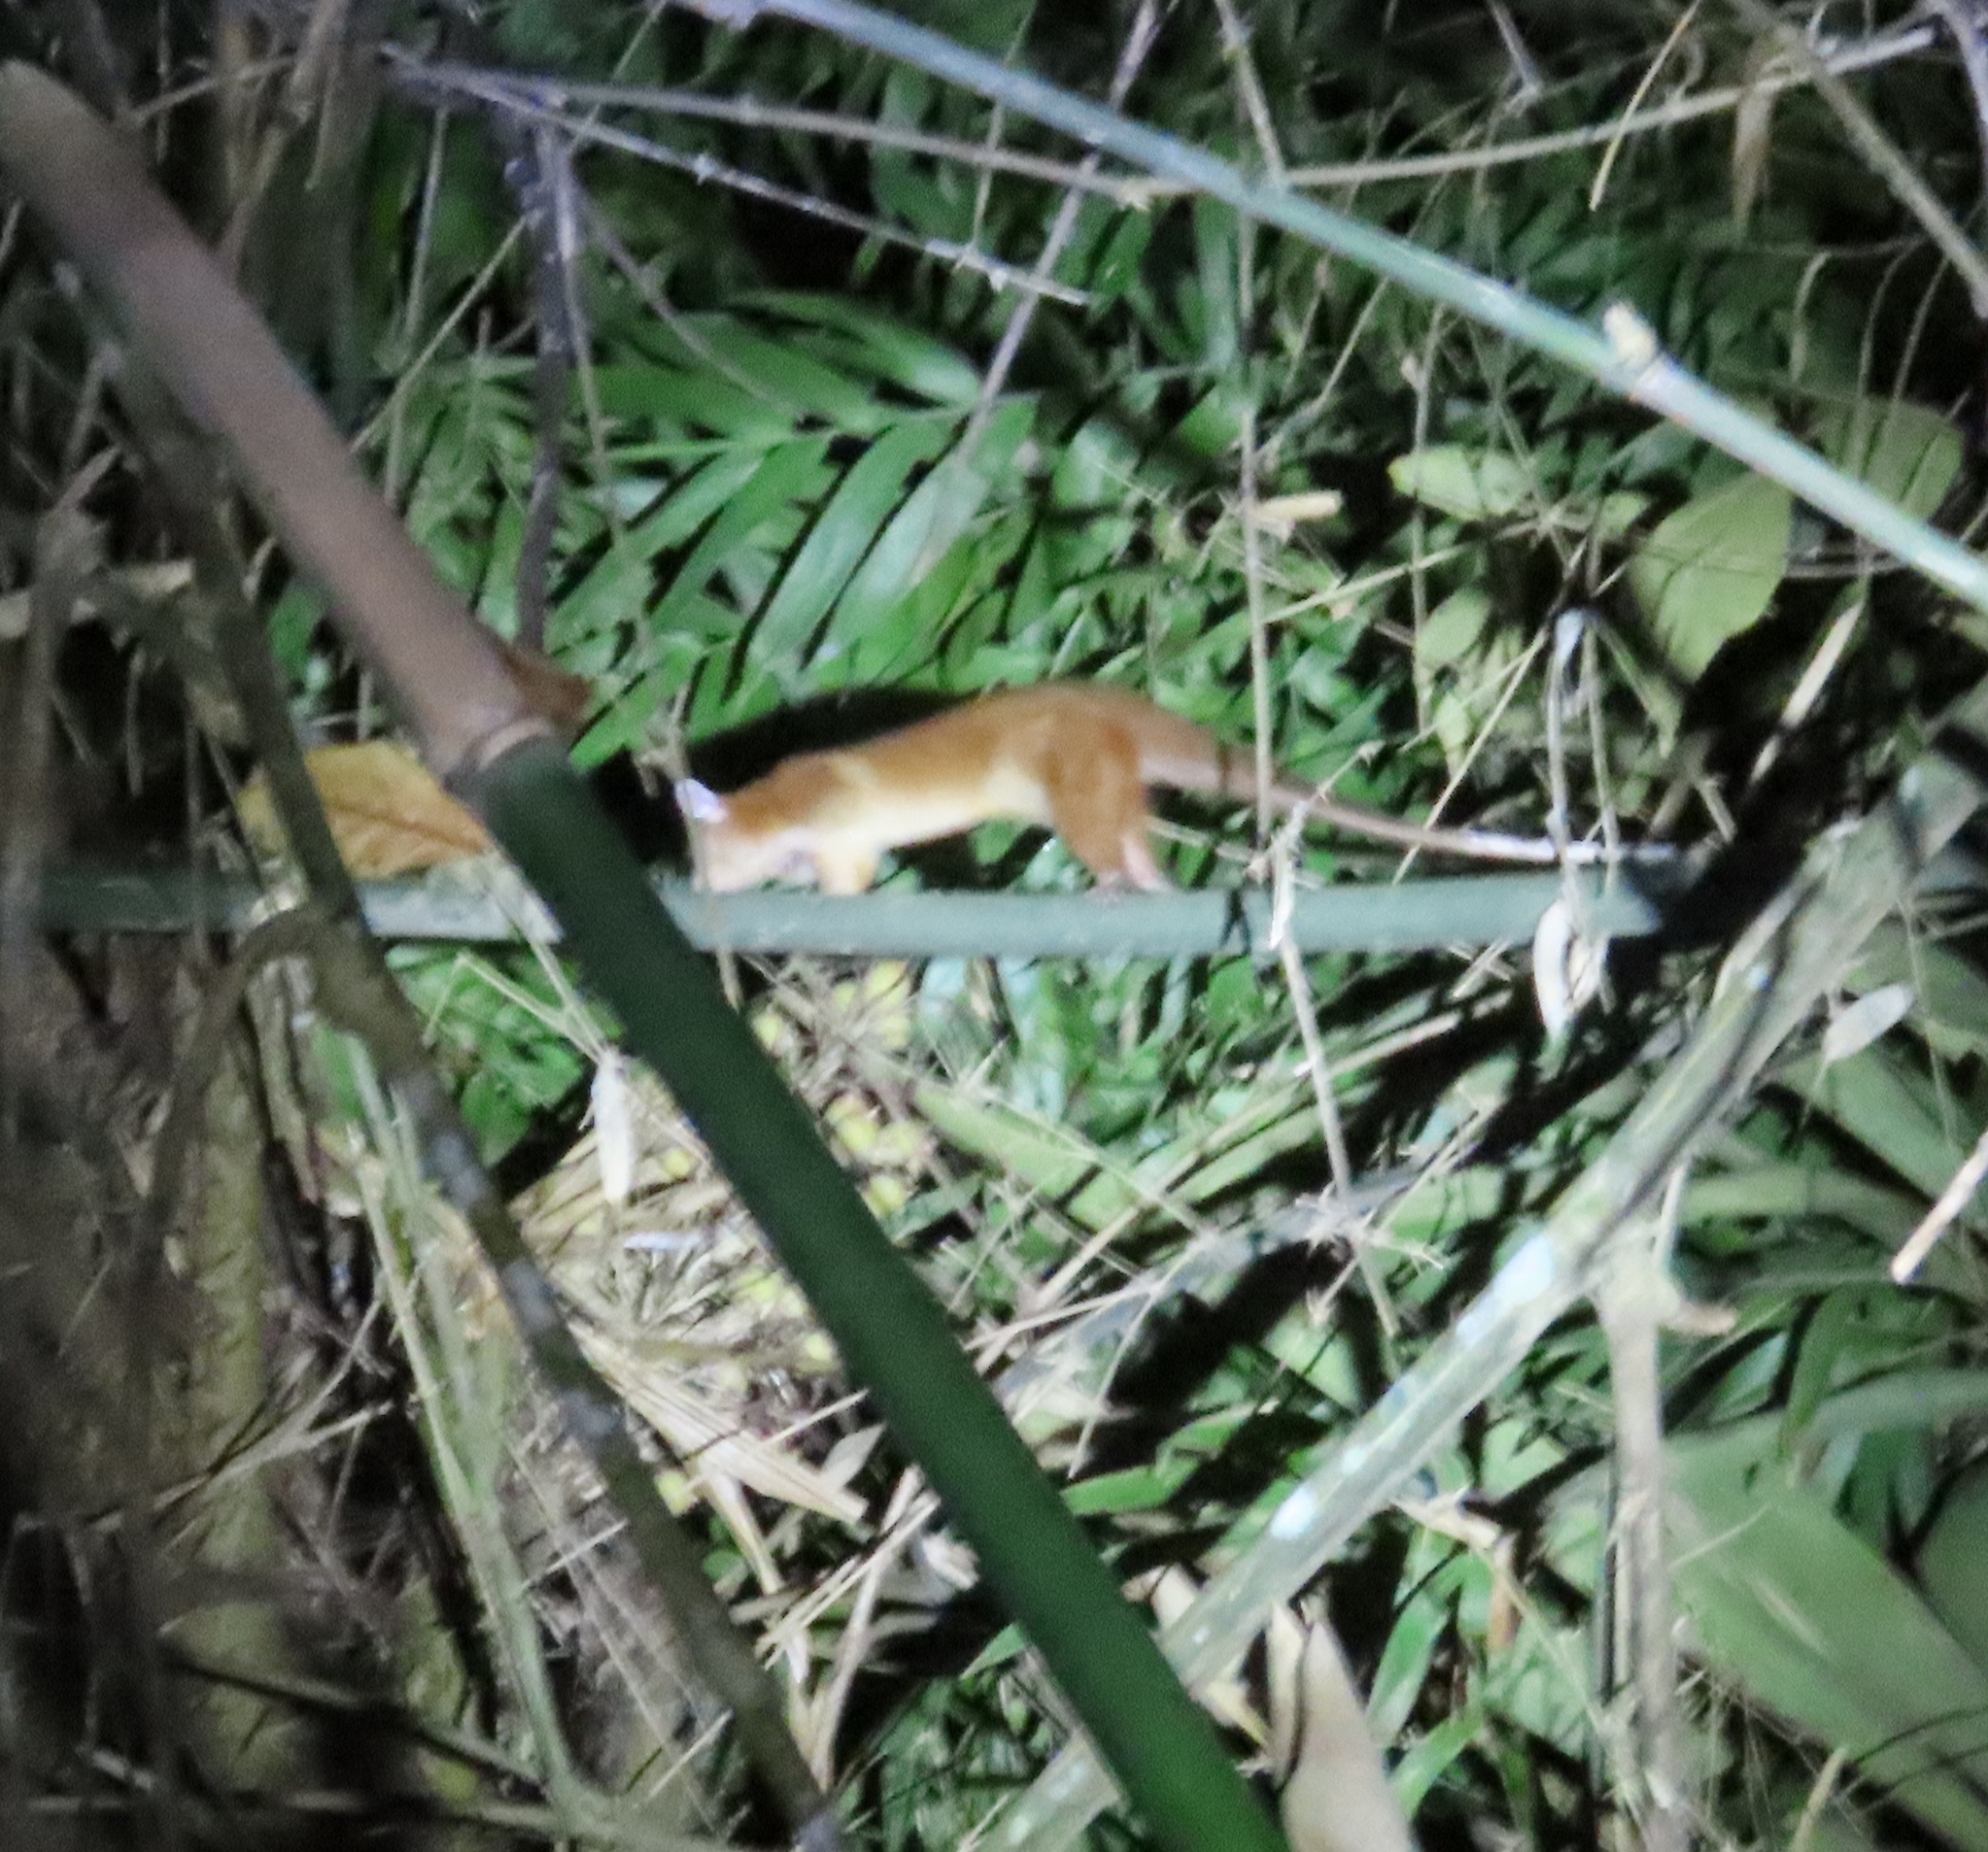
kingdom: Animalia
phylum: Chordata
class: Mammalia
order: Didelphimorphia
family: Didelphidae
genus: Caluromys
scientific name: Caluromys derbianus
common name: Derby's woolly opossum
